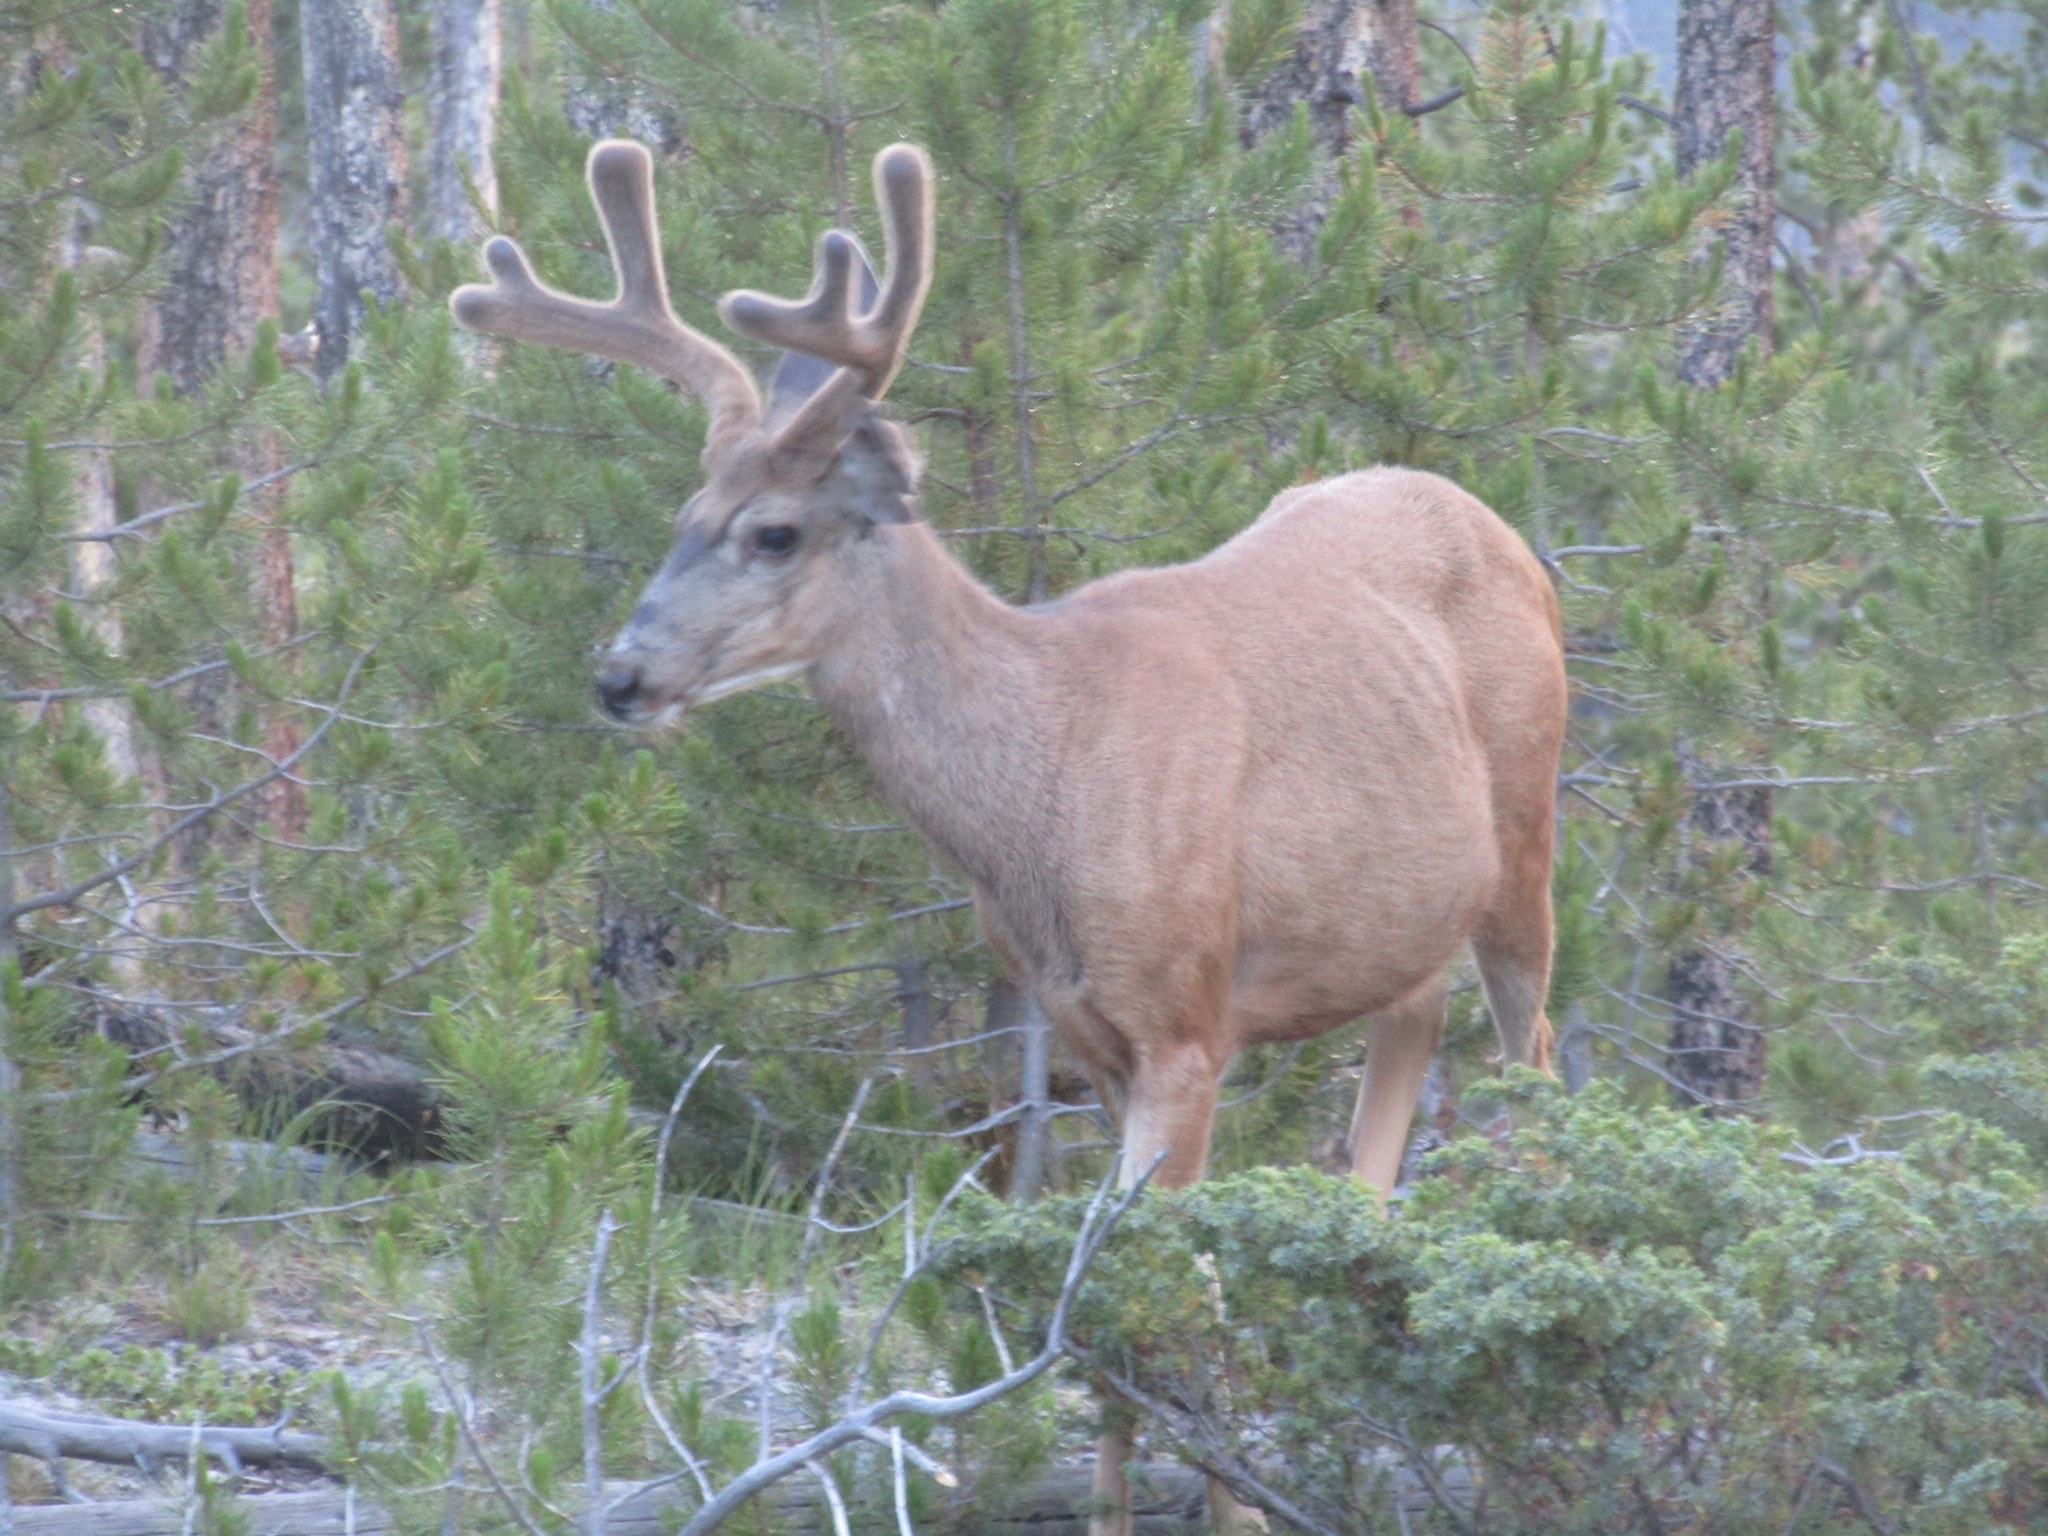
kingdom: Animalia
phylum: Chordata
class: Mammalia
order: Artiodactyla
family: Cervidae
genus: Odocoileus
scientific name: Odocoileus hemionus
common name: Mule deer
